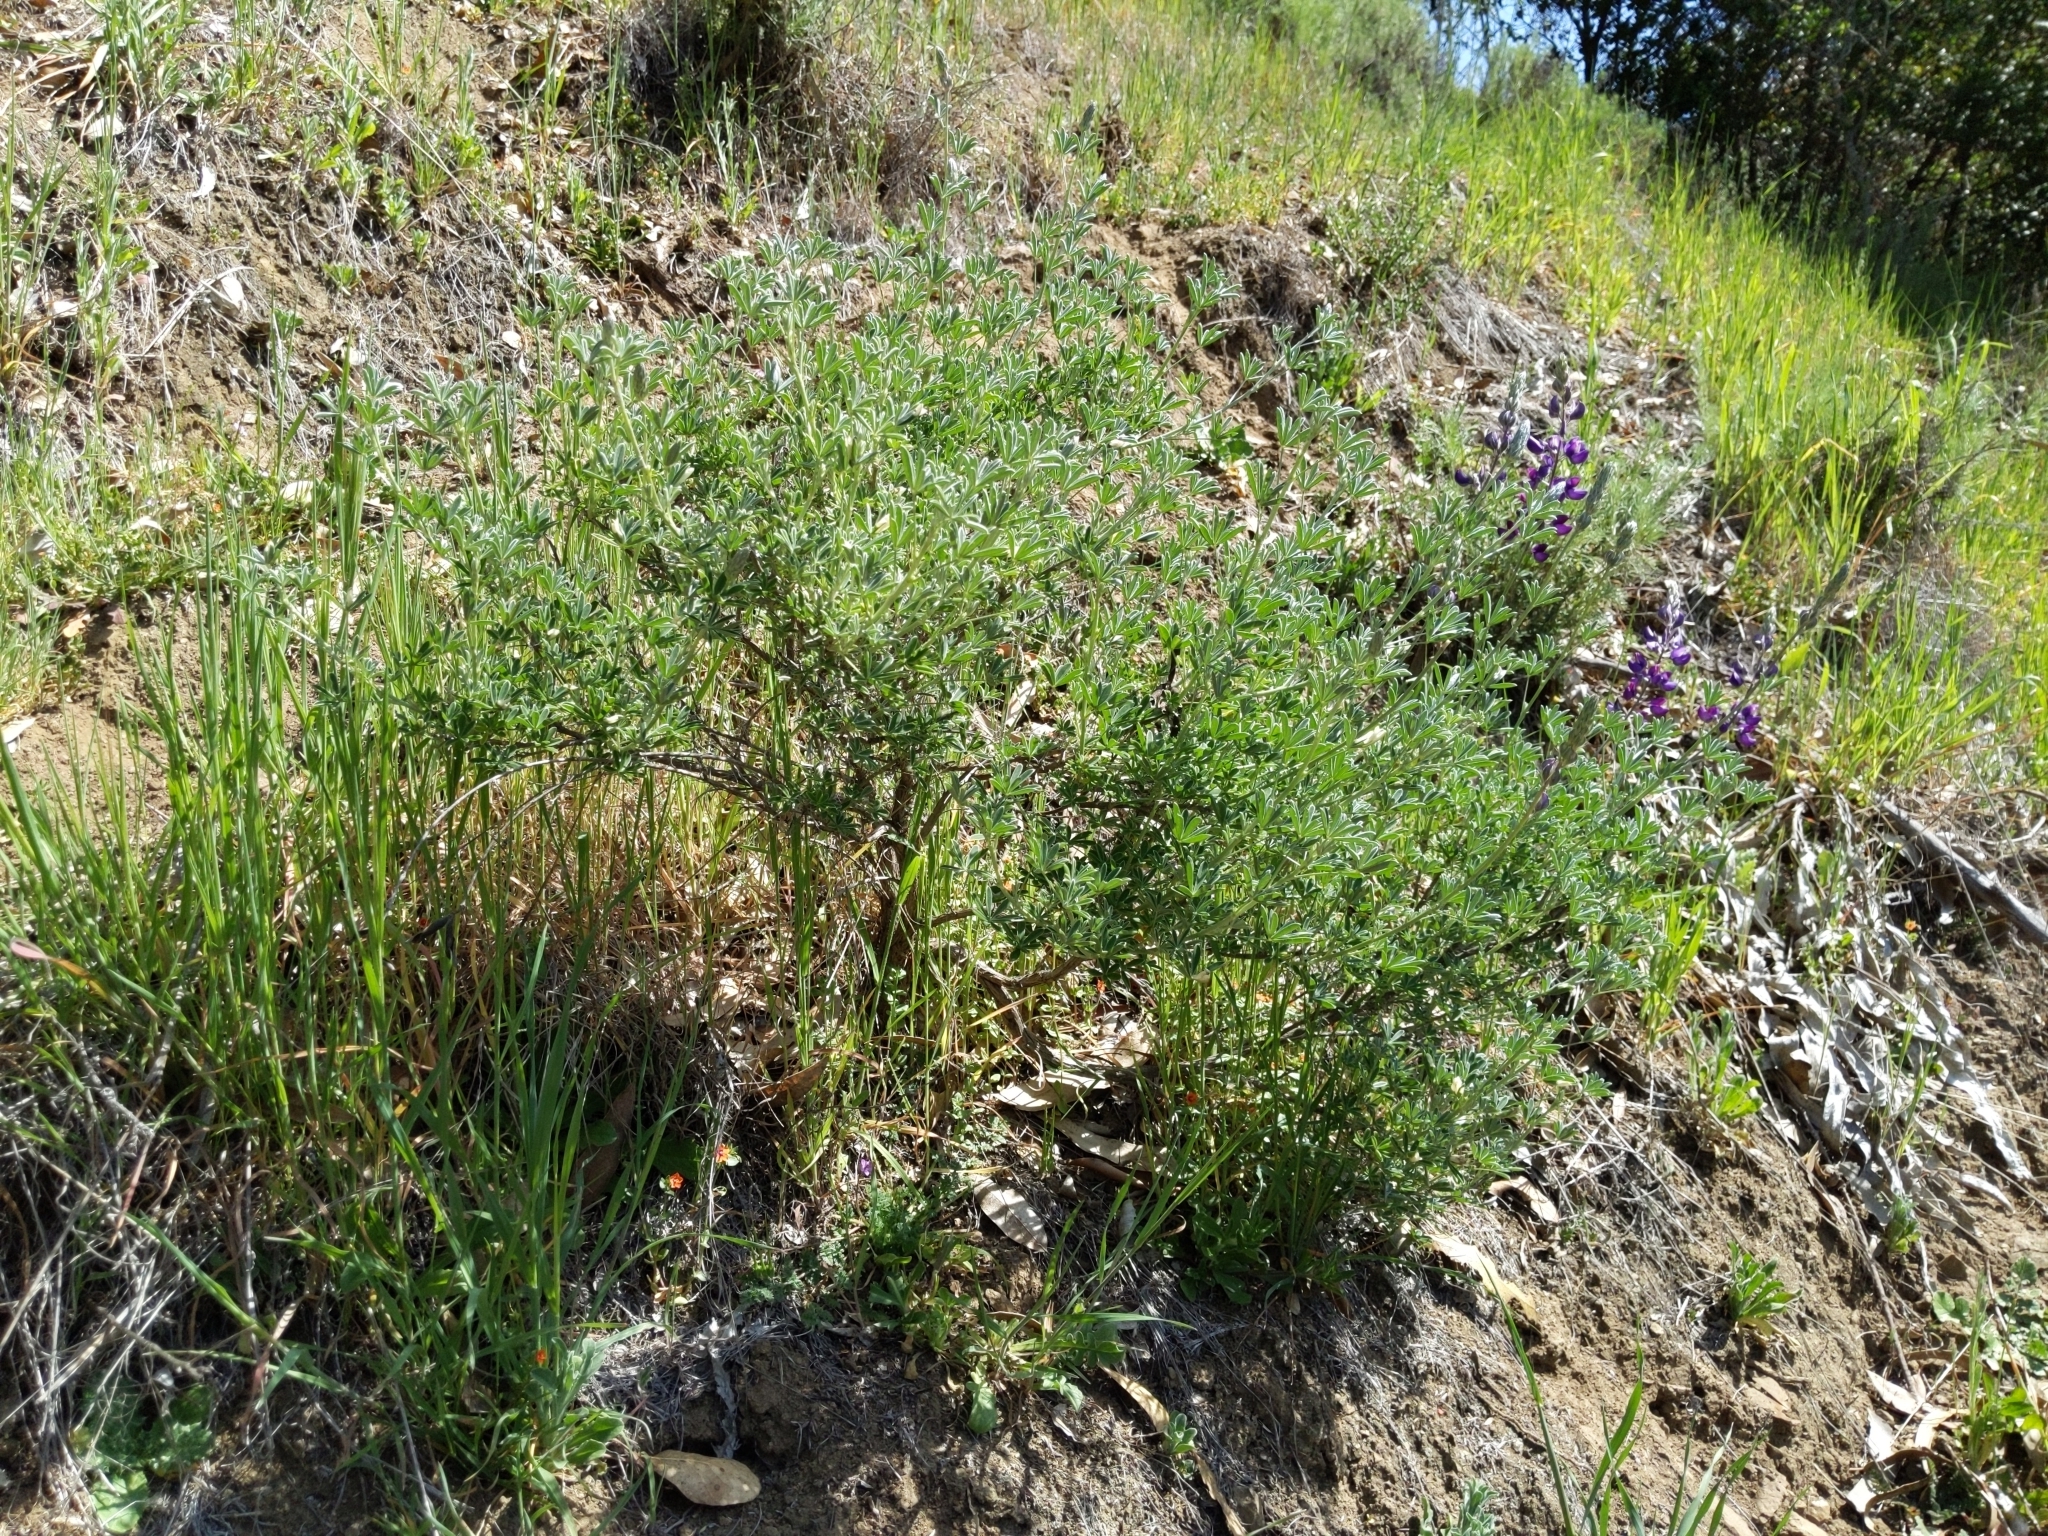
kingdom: Plantae
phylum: Tracheophyta
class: Magnoliopsida
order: Fabales
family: Fabaceae
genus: Lupinus
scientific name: Lupinus albifrons
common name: Foothill lupine
